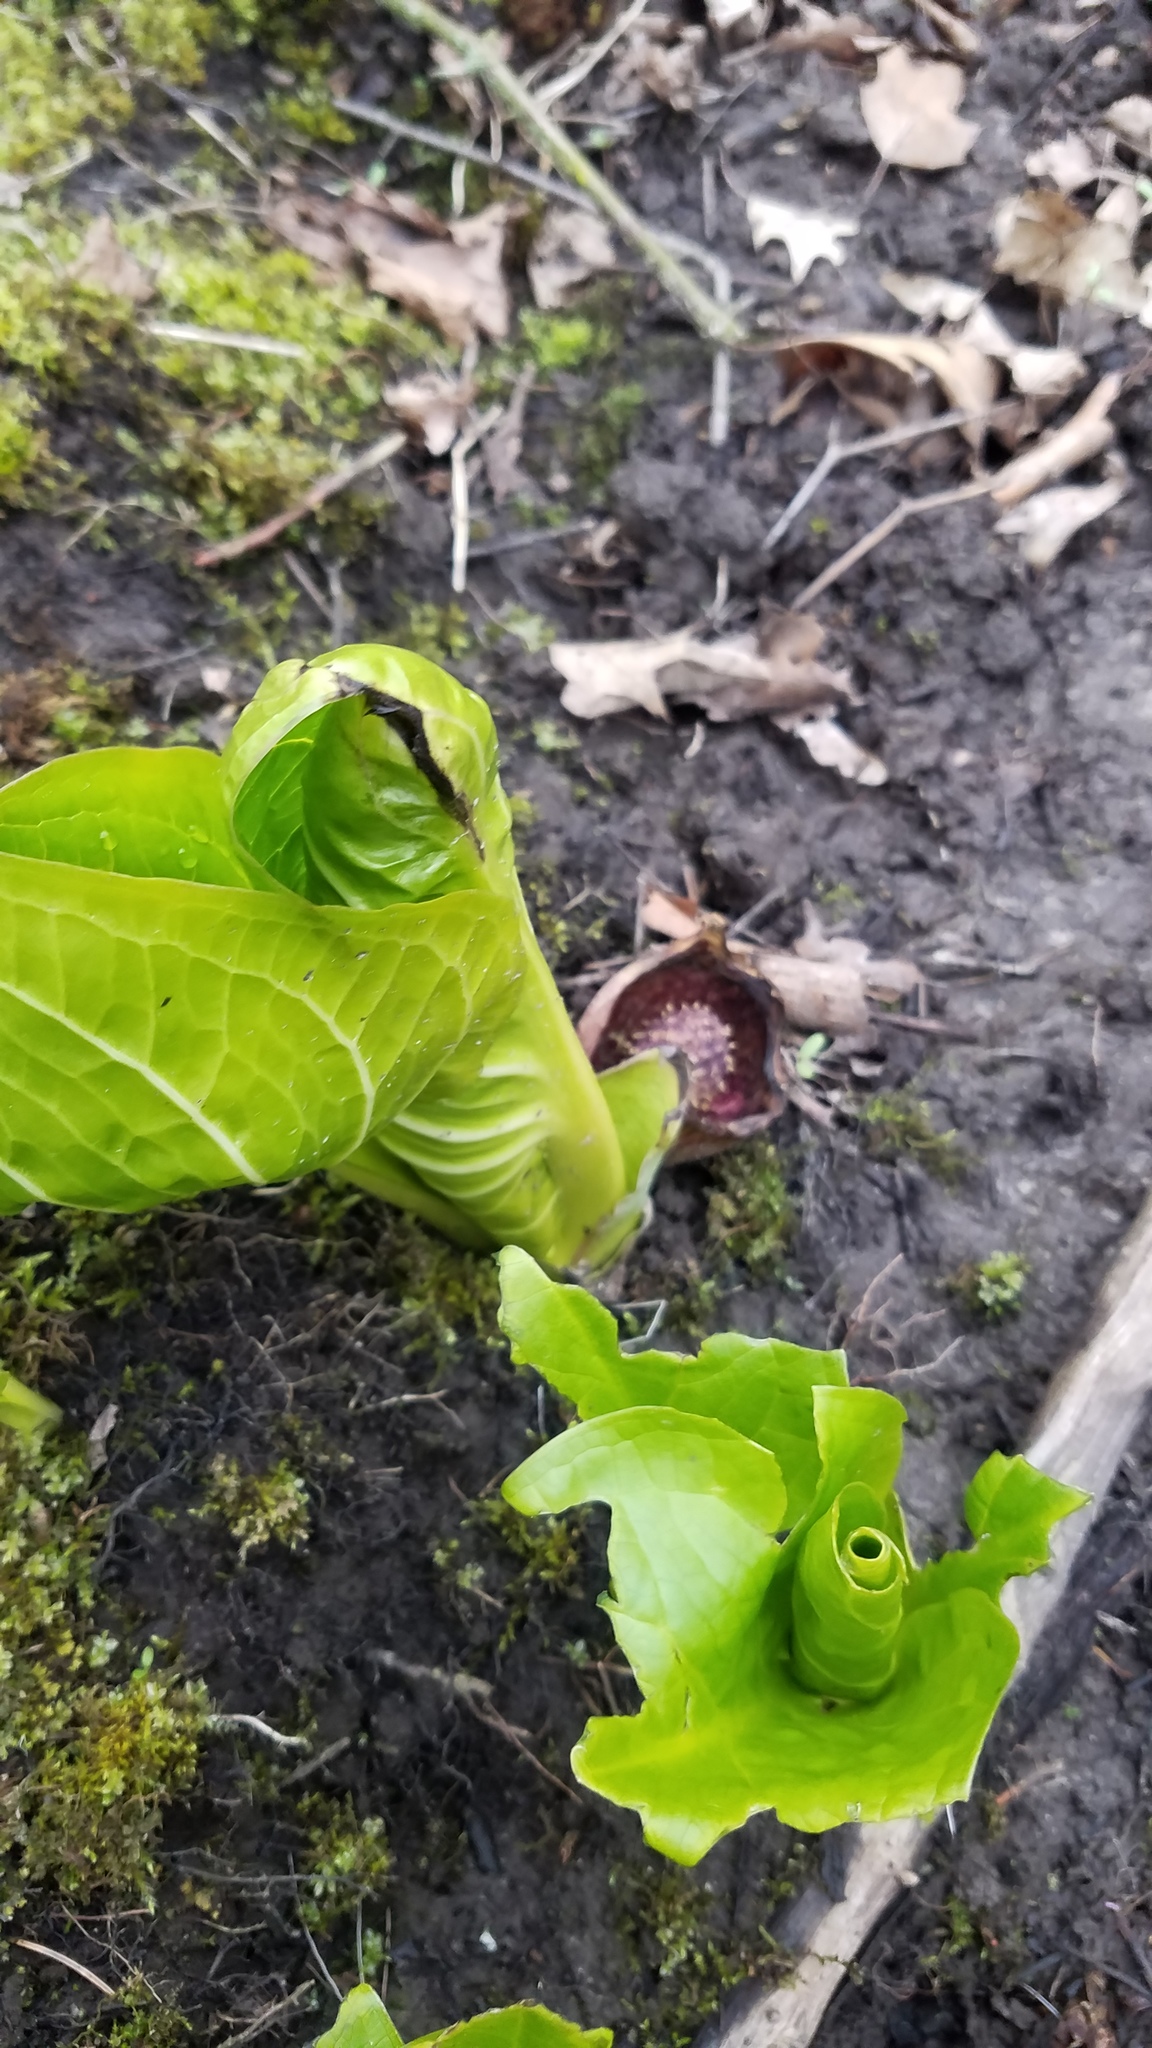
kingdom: Plantae
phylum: Tracheophyta
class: Liliopsida
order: Alismatales
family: Araceae
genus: Symplocarpus
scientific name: Symplocarpus foetidus
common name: Eastern skunk cabbage
